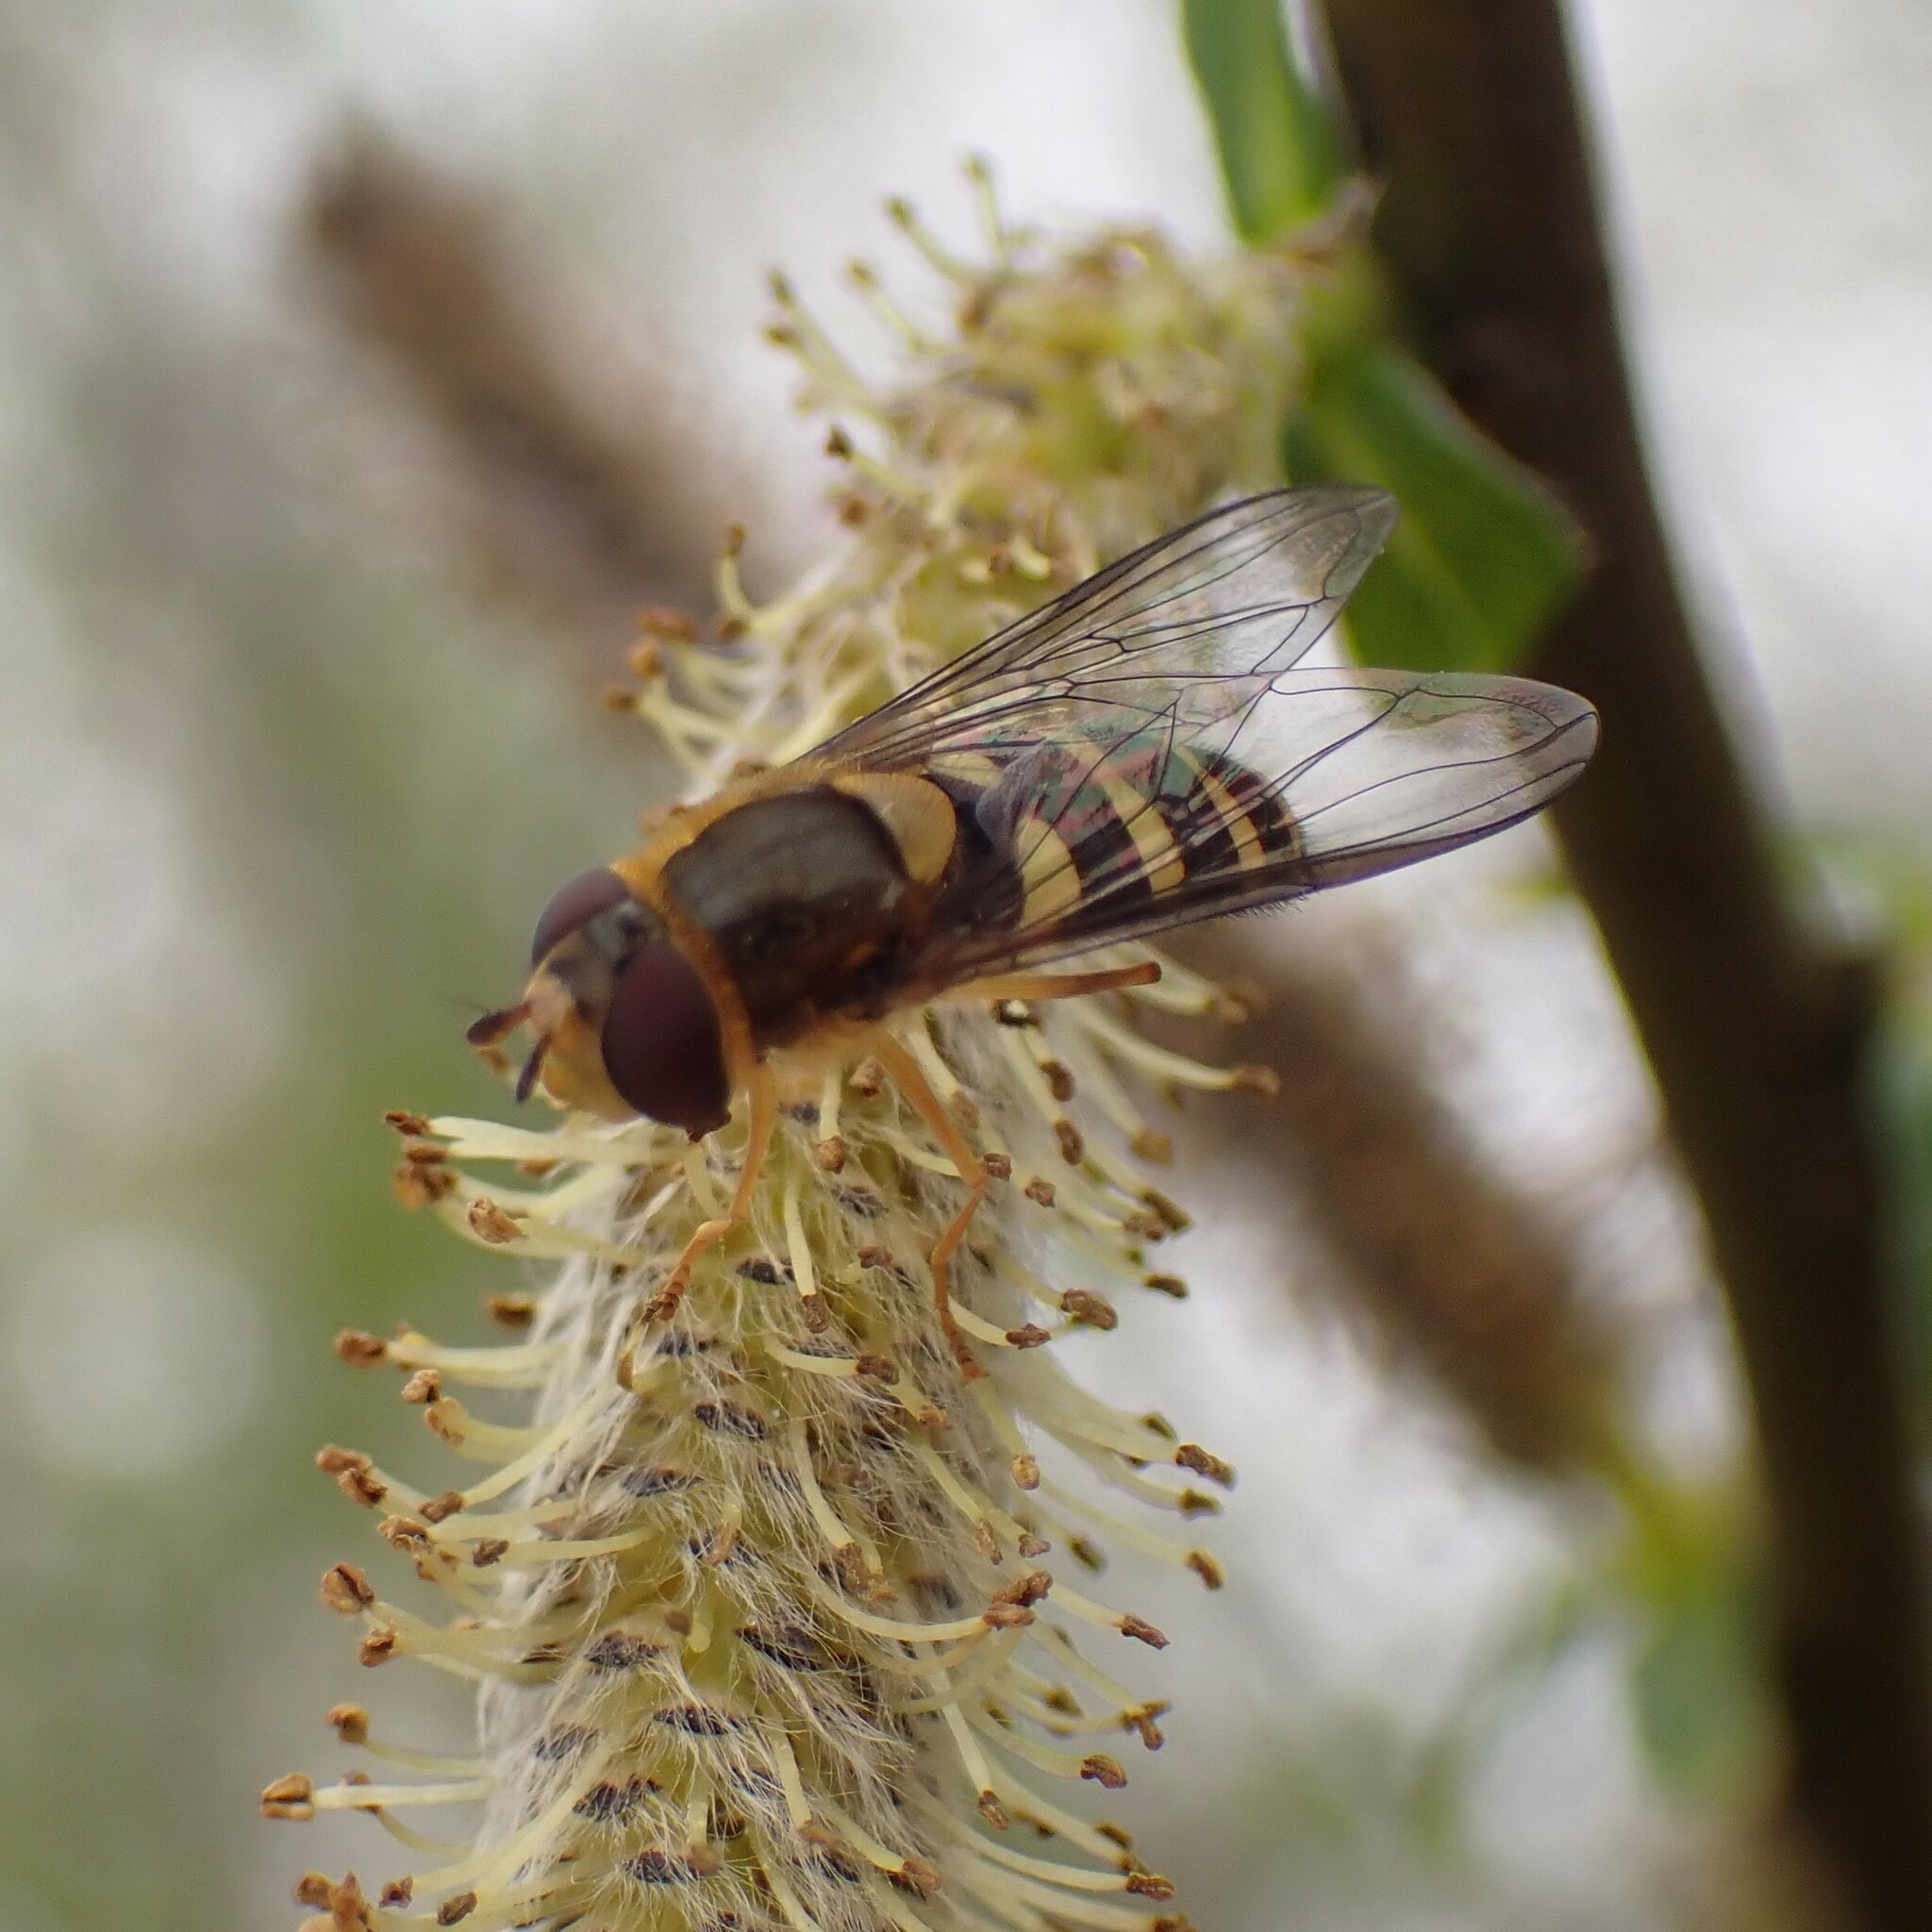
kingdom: Animalia
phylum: Arthropoda
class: Insecta
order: Diptera
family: Syrphidae
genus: Syrphus
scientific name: Syrphus opinator
